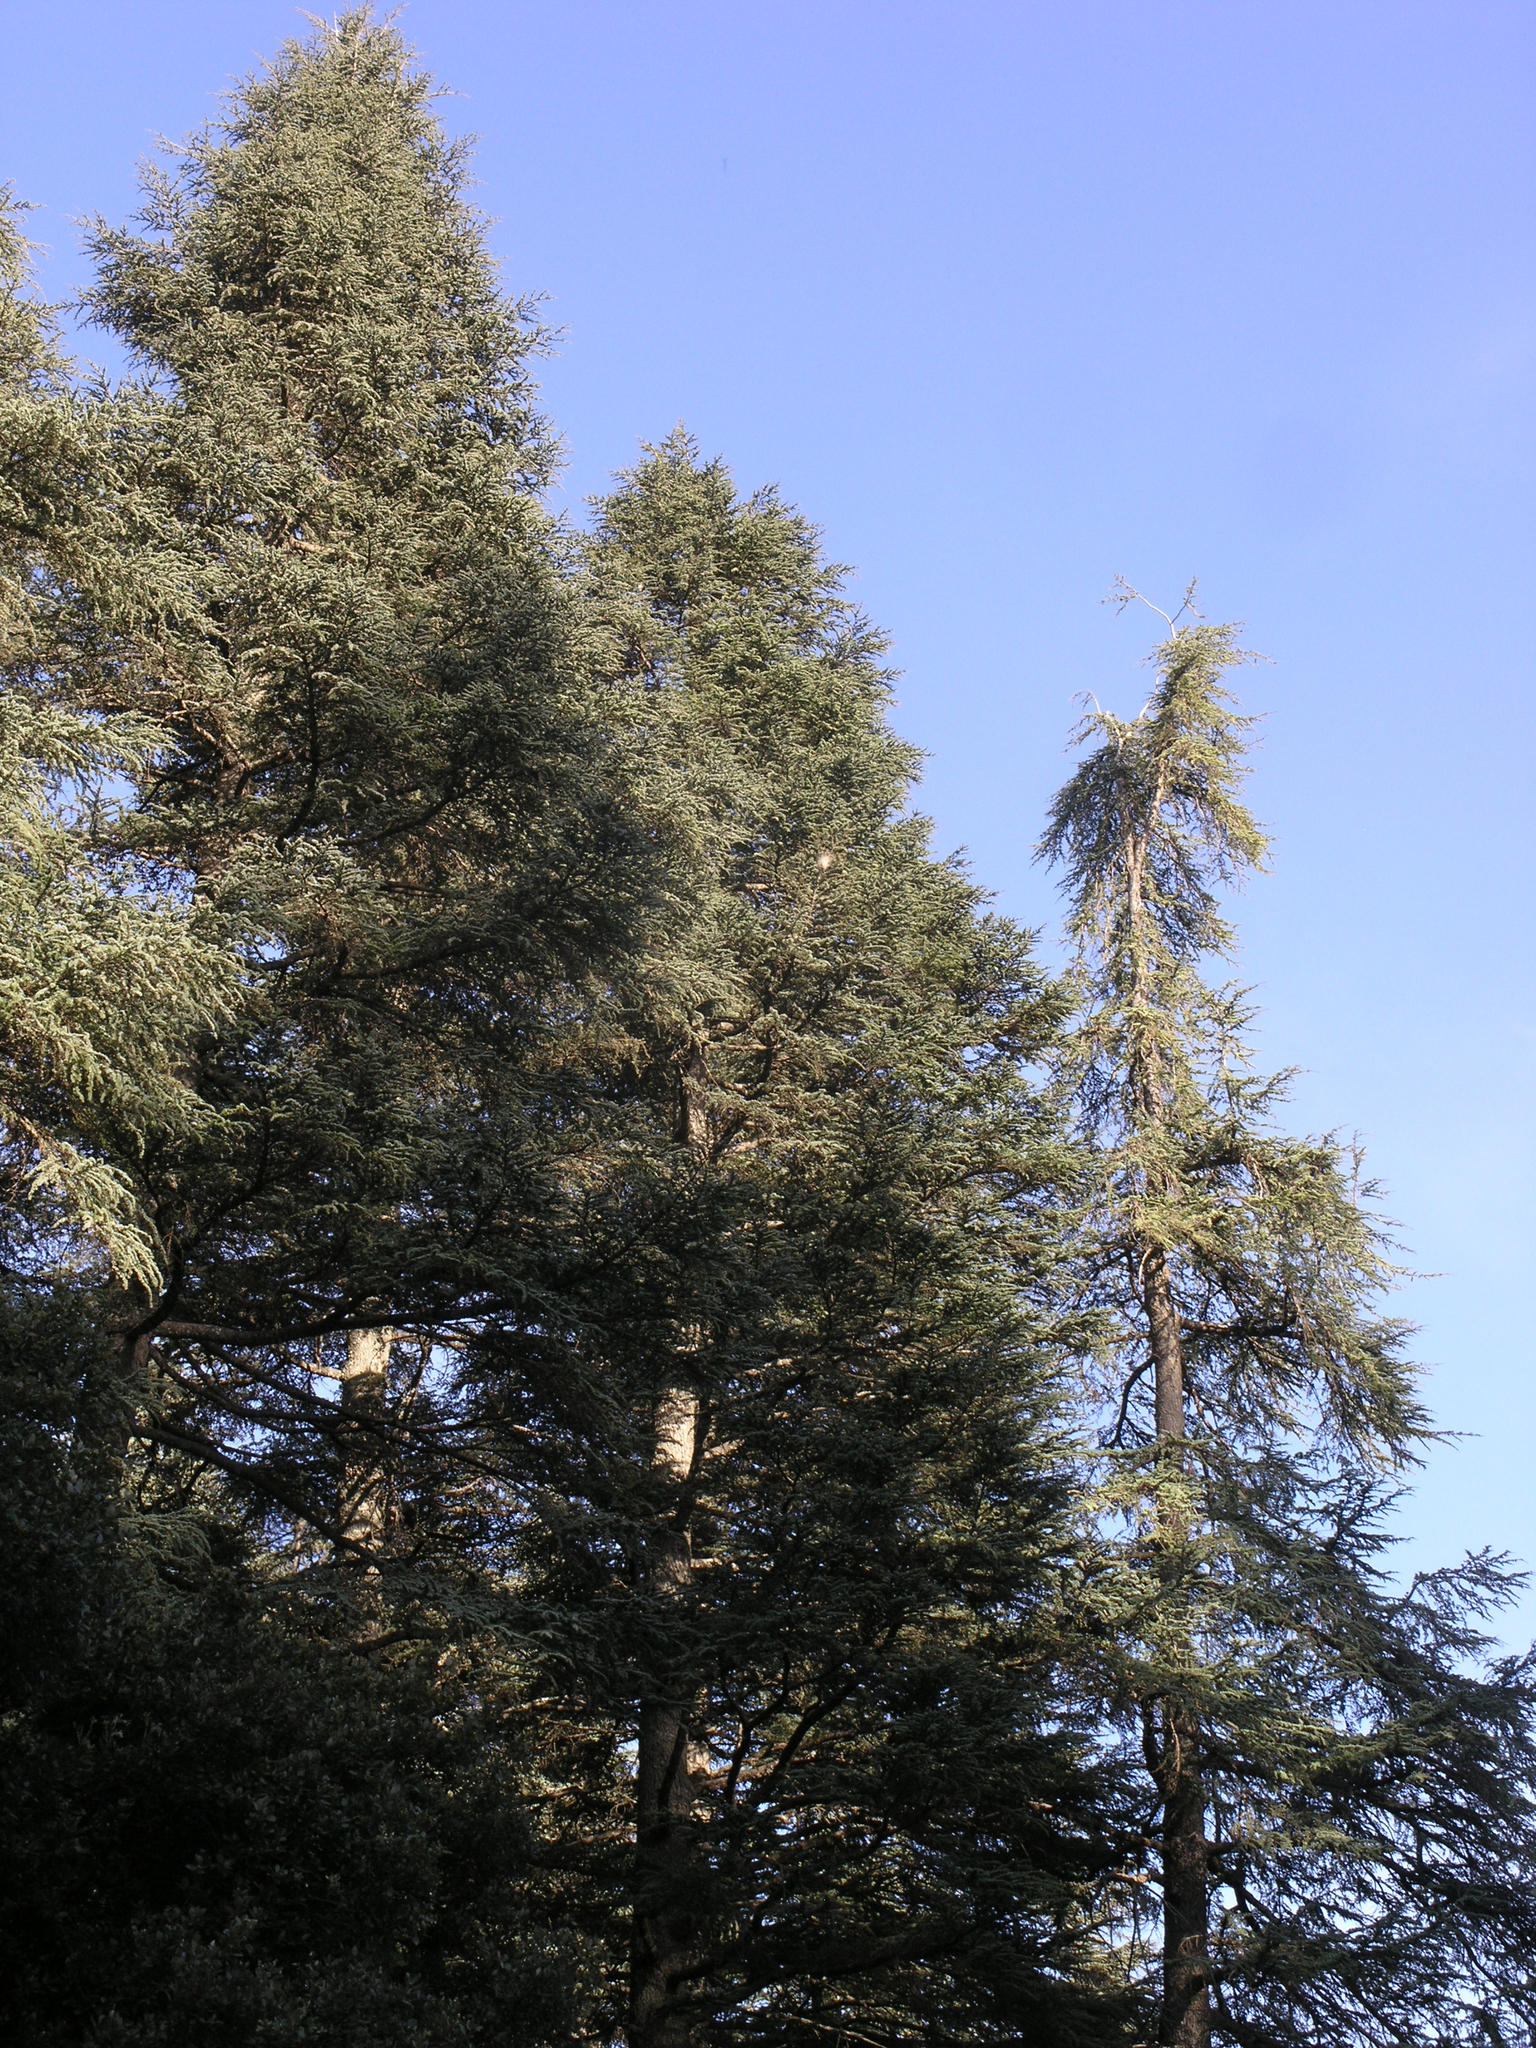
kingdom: Plantae
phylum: Tracheophyta
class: Pinopsida
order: Pinales
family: Pinaceae
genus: Cedrus
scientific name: Cedrus atlantica
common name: Atlas cedar
